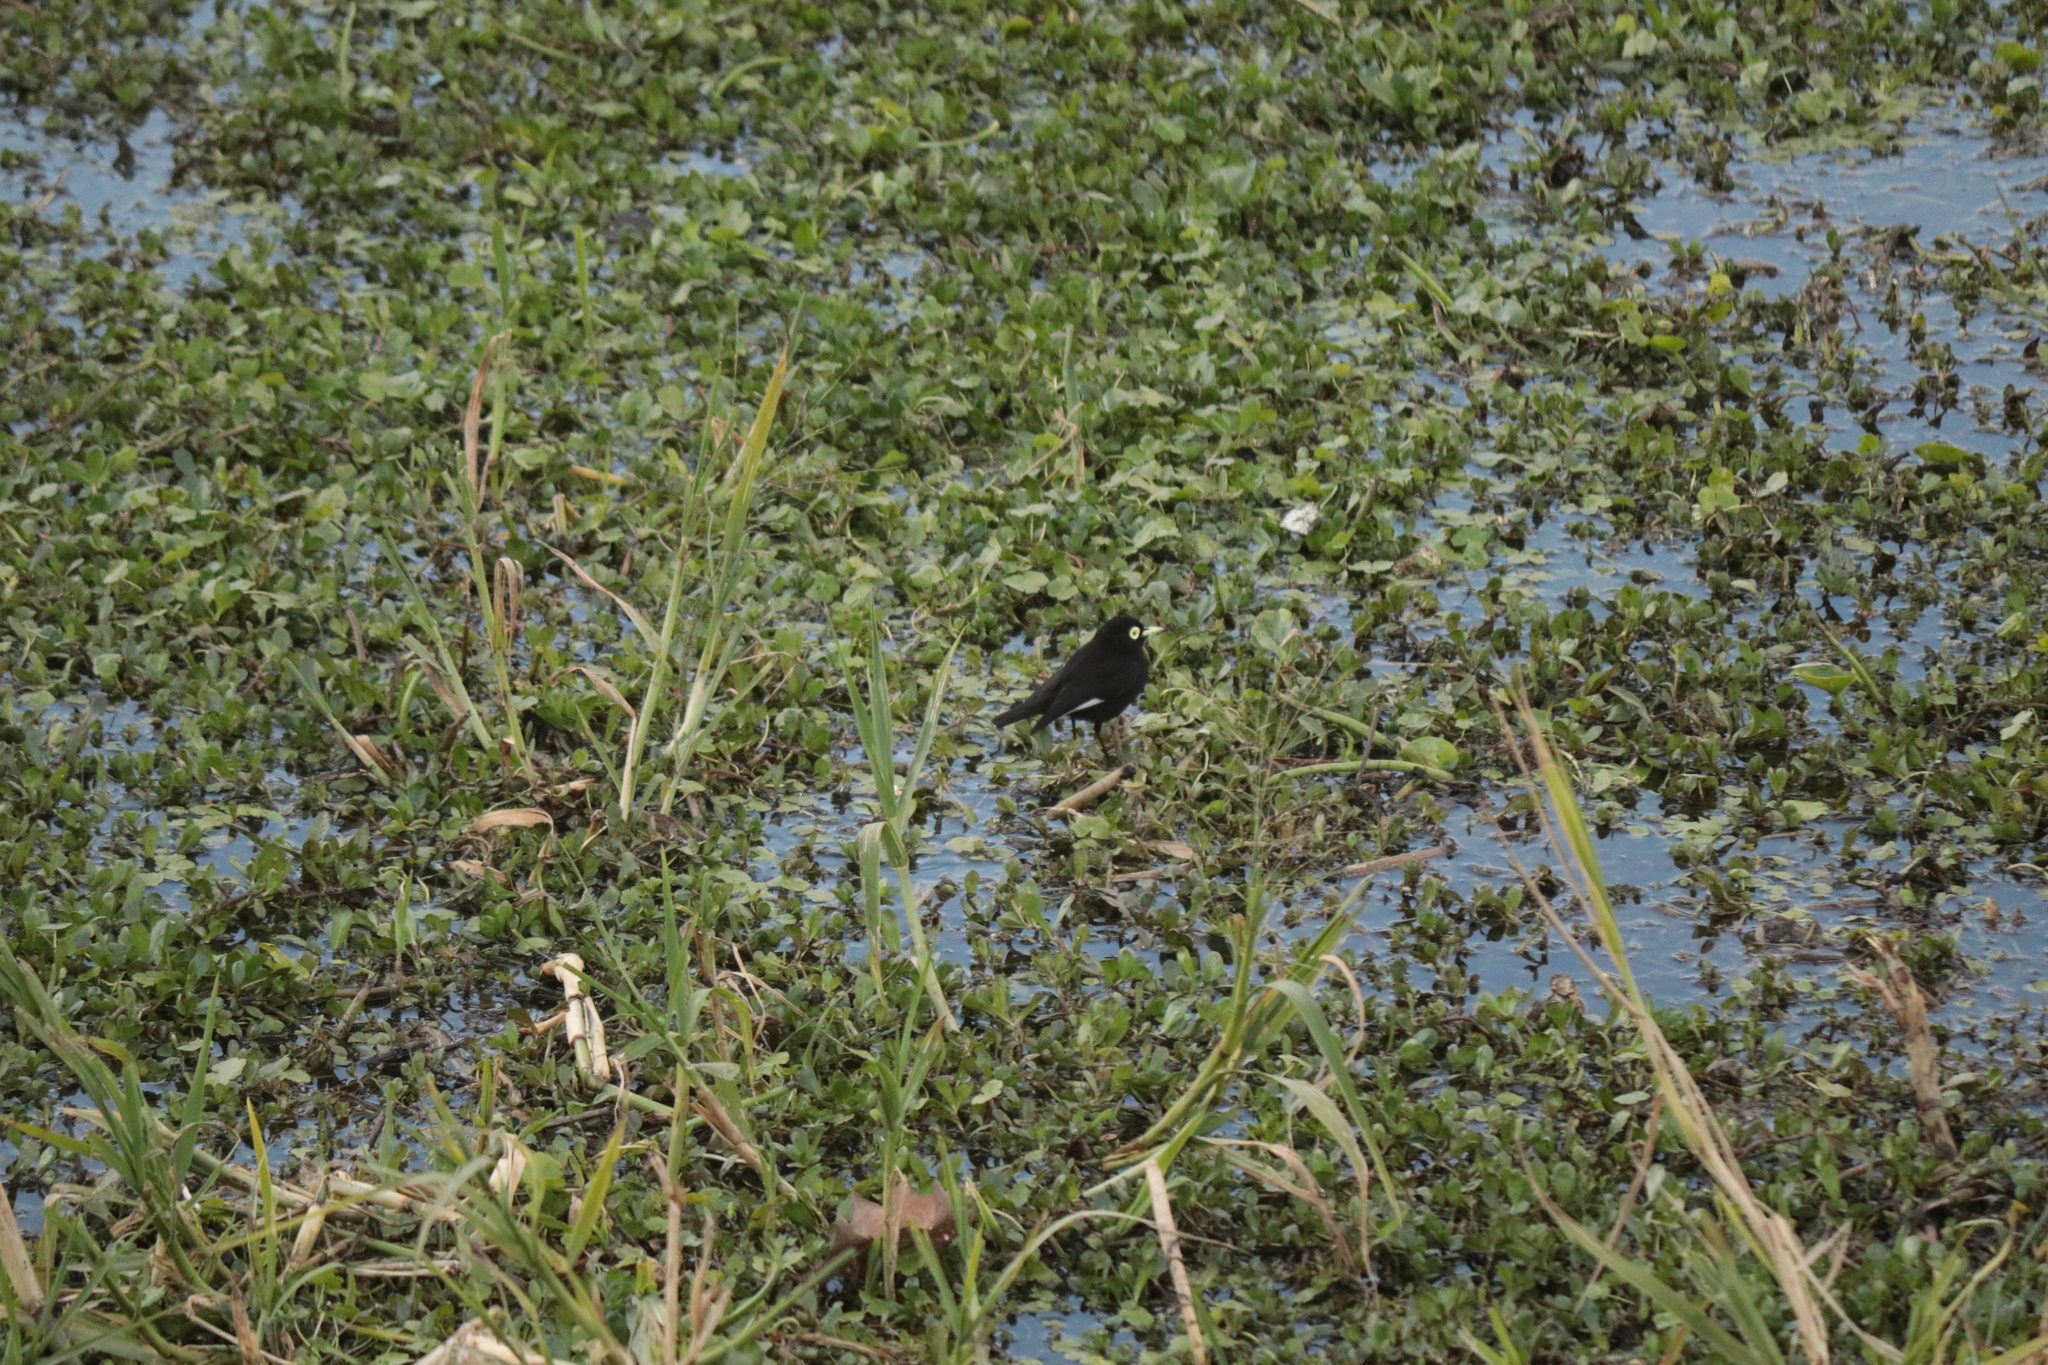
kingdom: Animalia
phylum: Chordata
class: Aves
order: Passeriformes
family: Tyrannidae
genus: Hymenops
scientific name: Hymenops perspicillatus
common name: Spectacled tyrant
